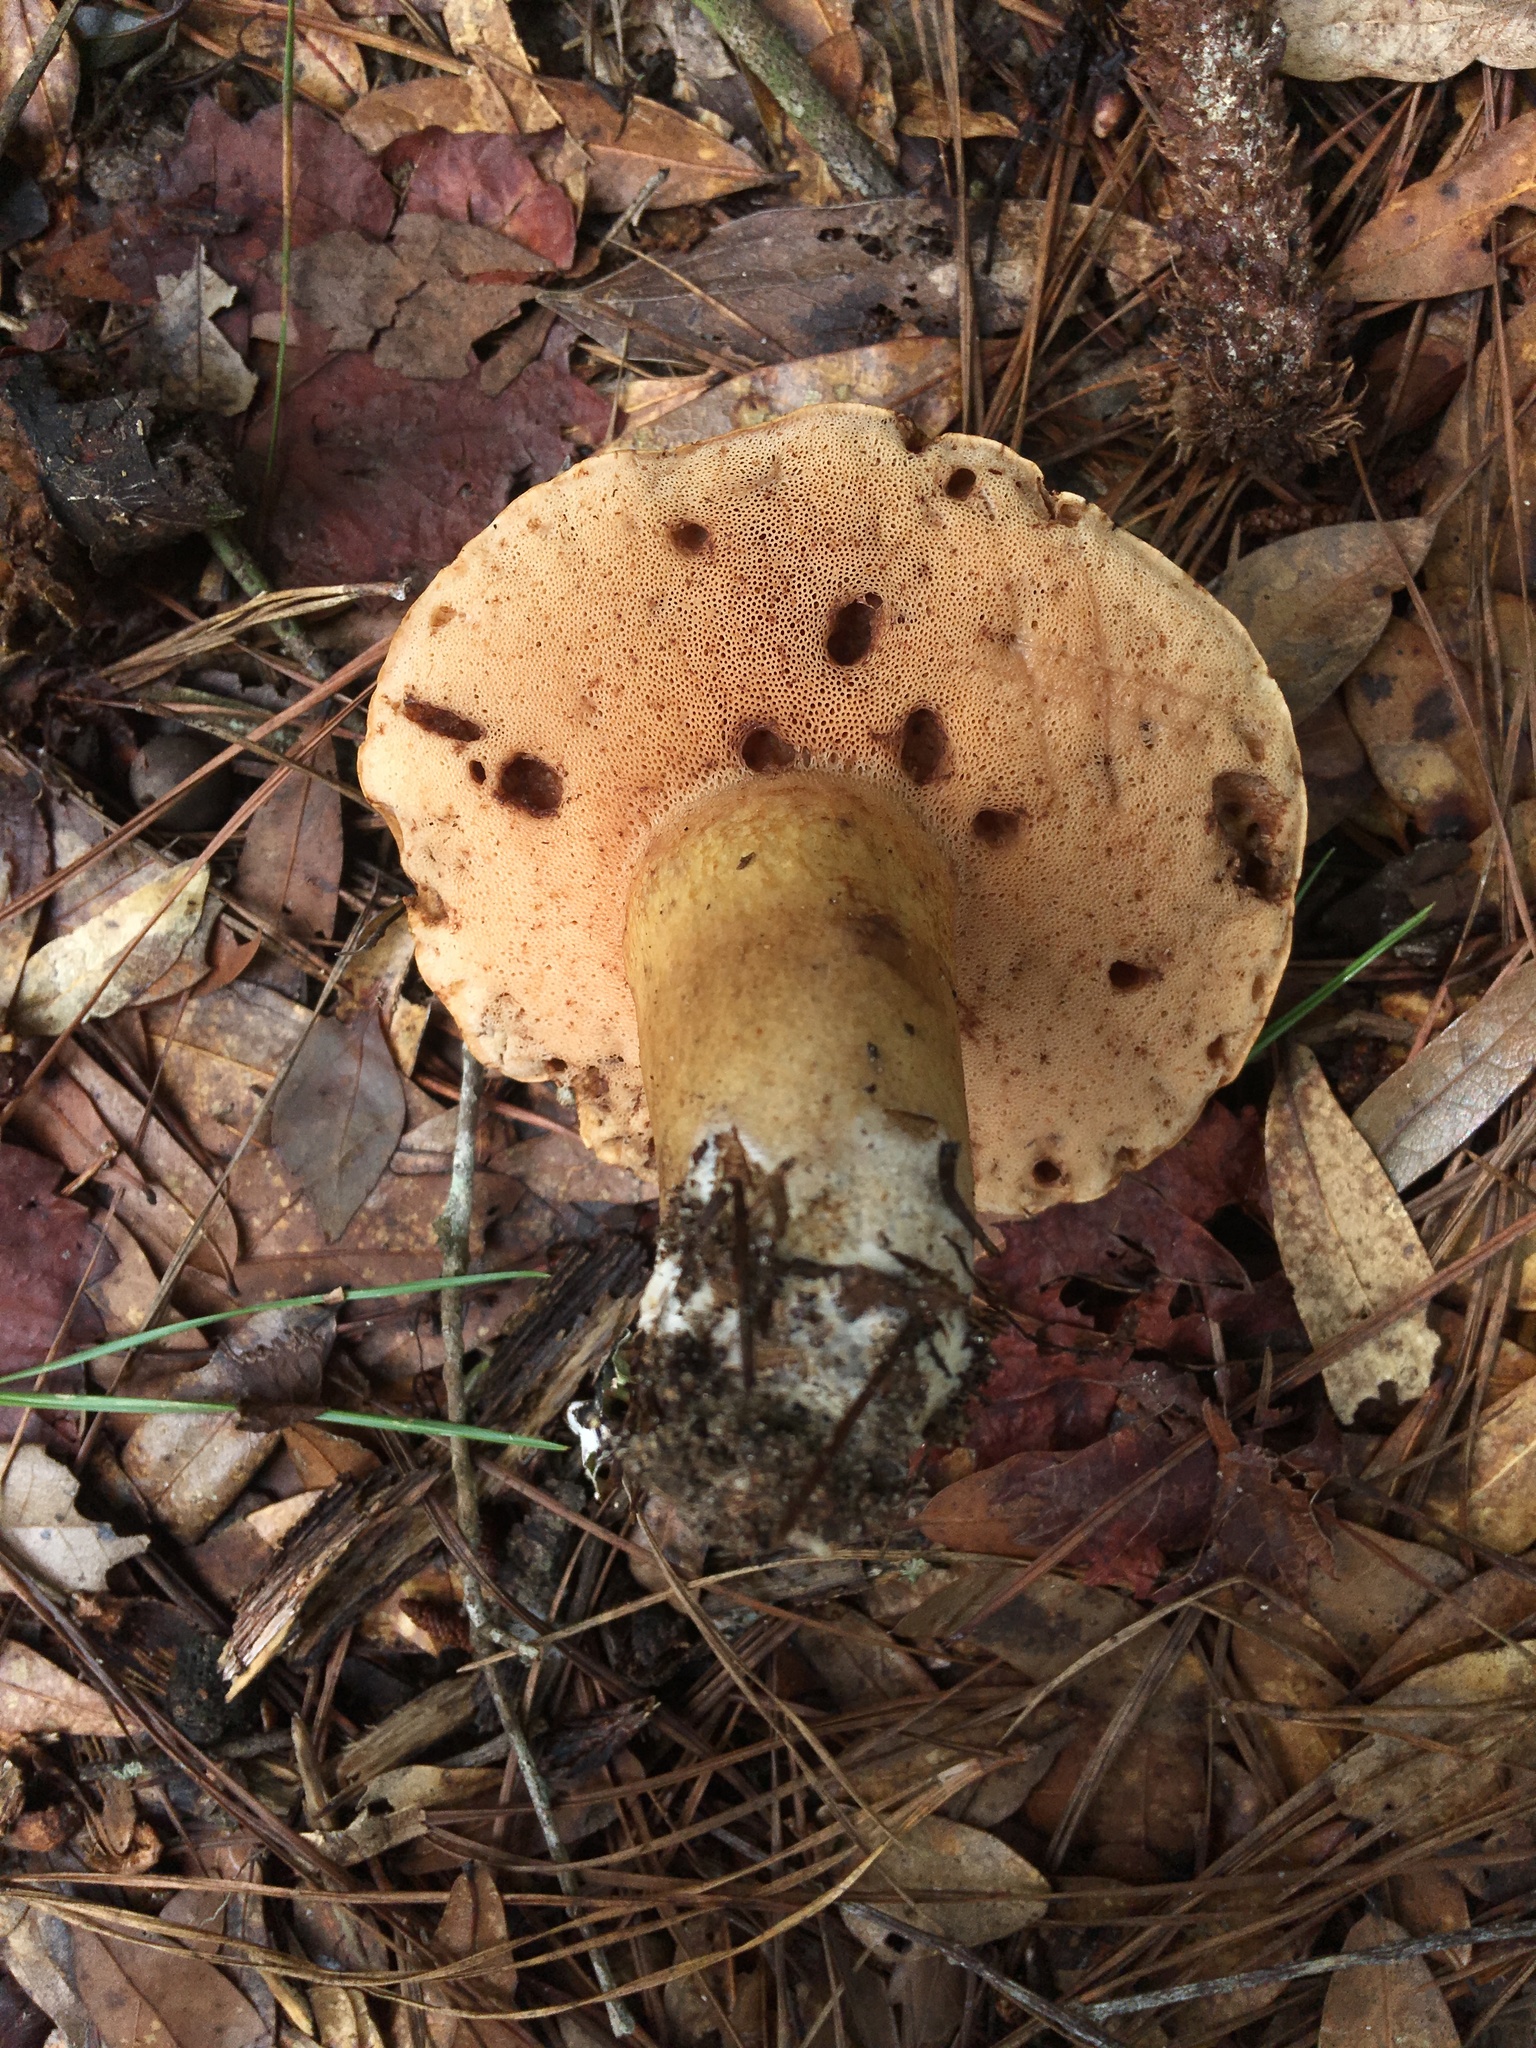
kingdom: Fungi
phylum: Basidiomycota
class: Agaricomycetes
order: Boletales
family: Boletaceae
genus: Tylopilus
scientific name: Tylopilus felleus
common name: Bitter bolete
